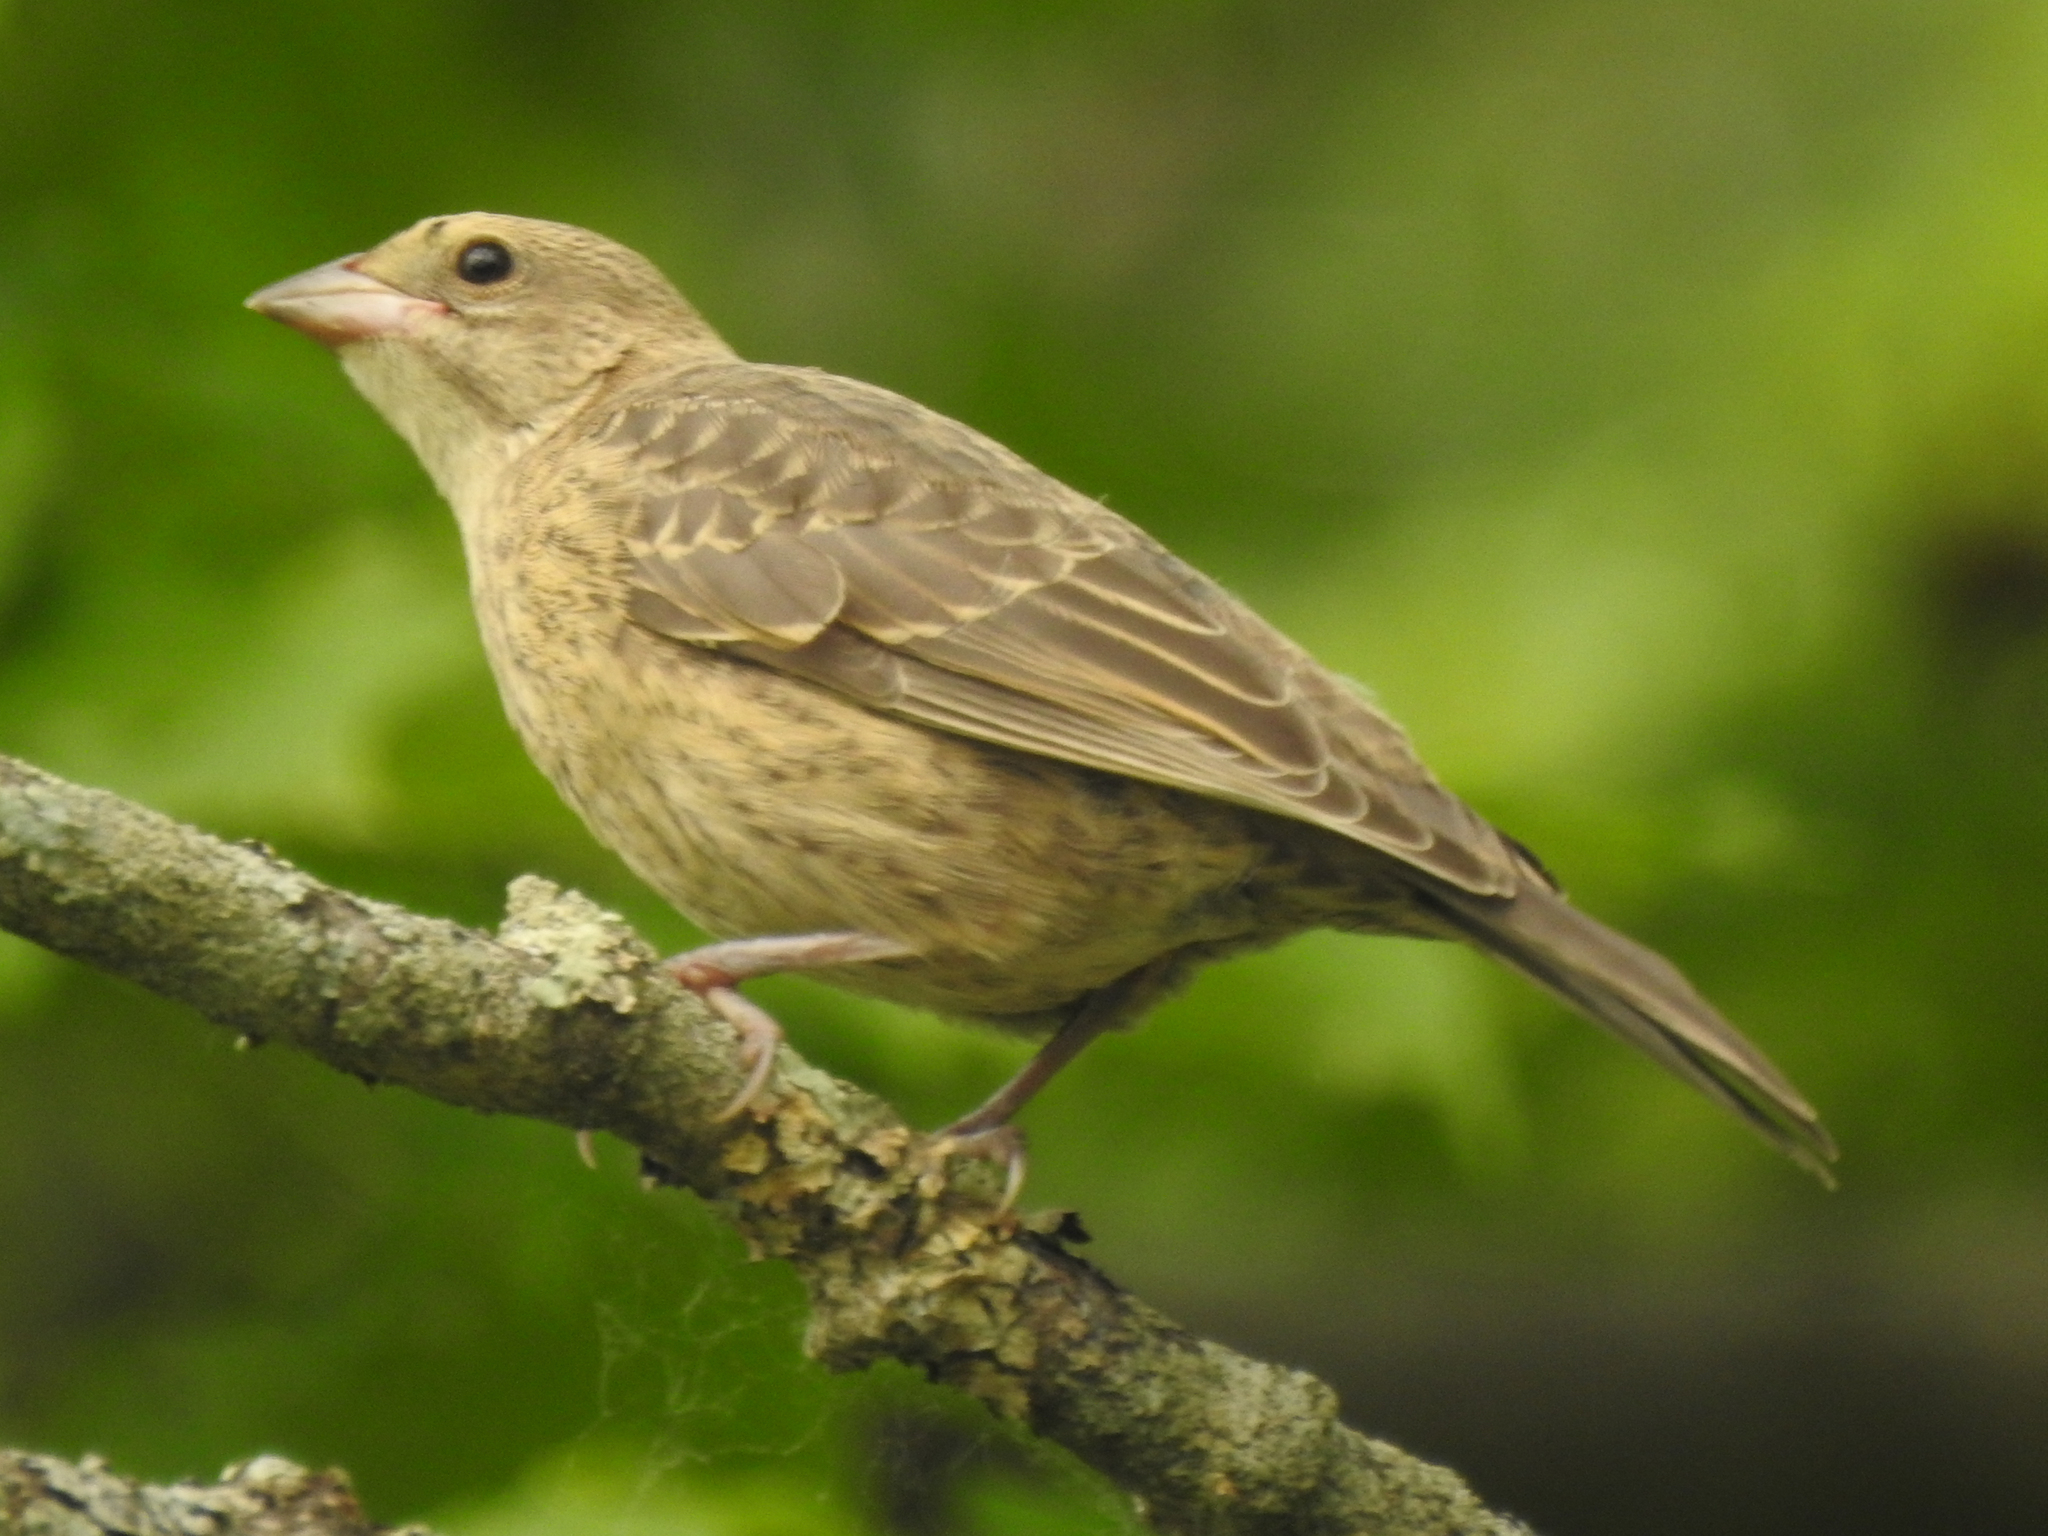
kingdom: Animalia
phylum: Chordata
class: Aves
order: Passeriformes
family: Icteridae
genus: Molothrus
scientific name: Molothrus ater
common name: Brown-headed cowbird
